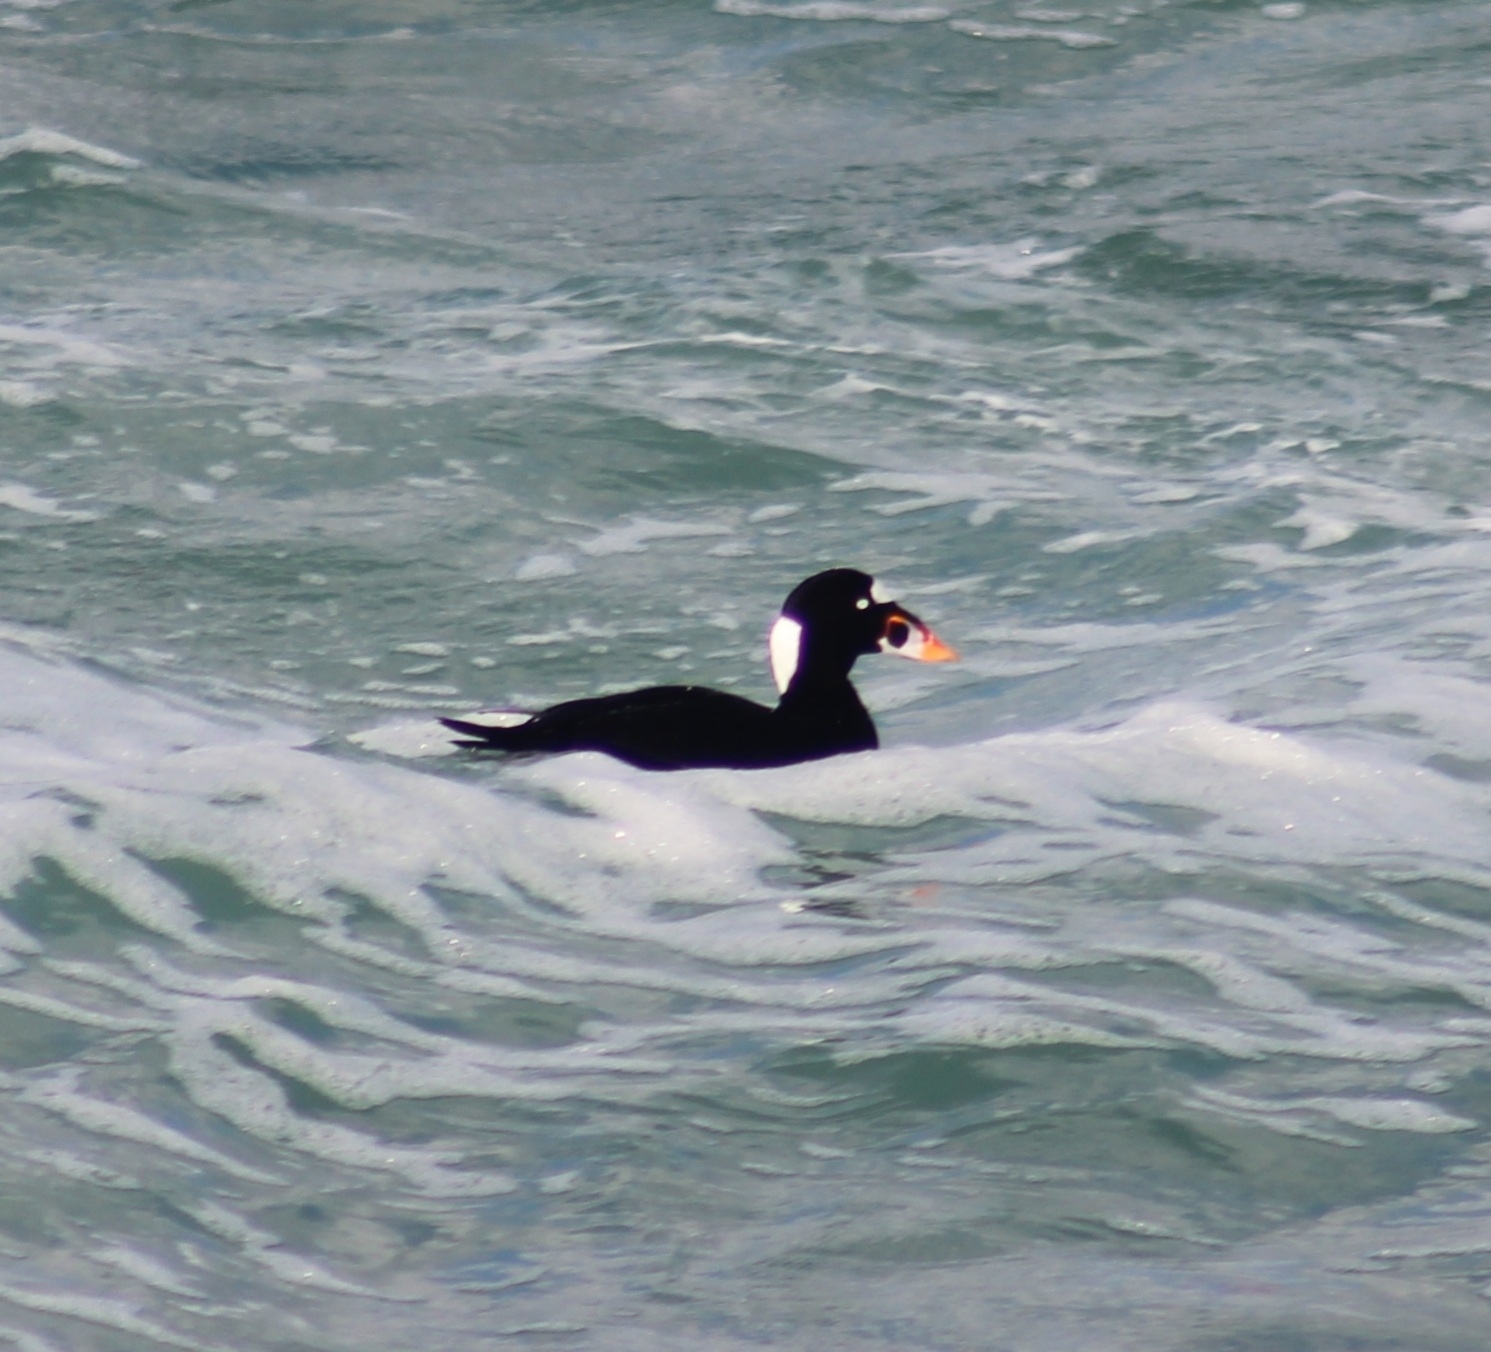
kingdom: Animalia
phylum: Chordata
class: Aves
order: Anseriformes
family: Anatidae
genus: Melanitta
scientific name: Melanitta perspicillata
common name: Surf scoter
